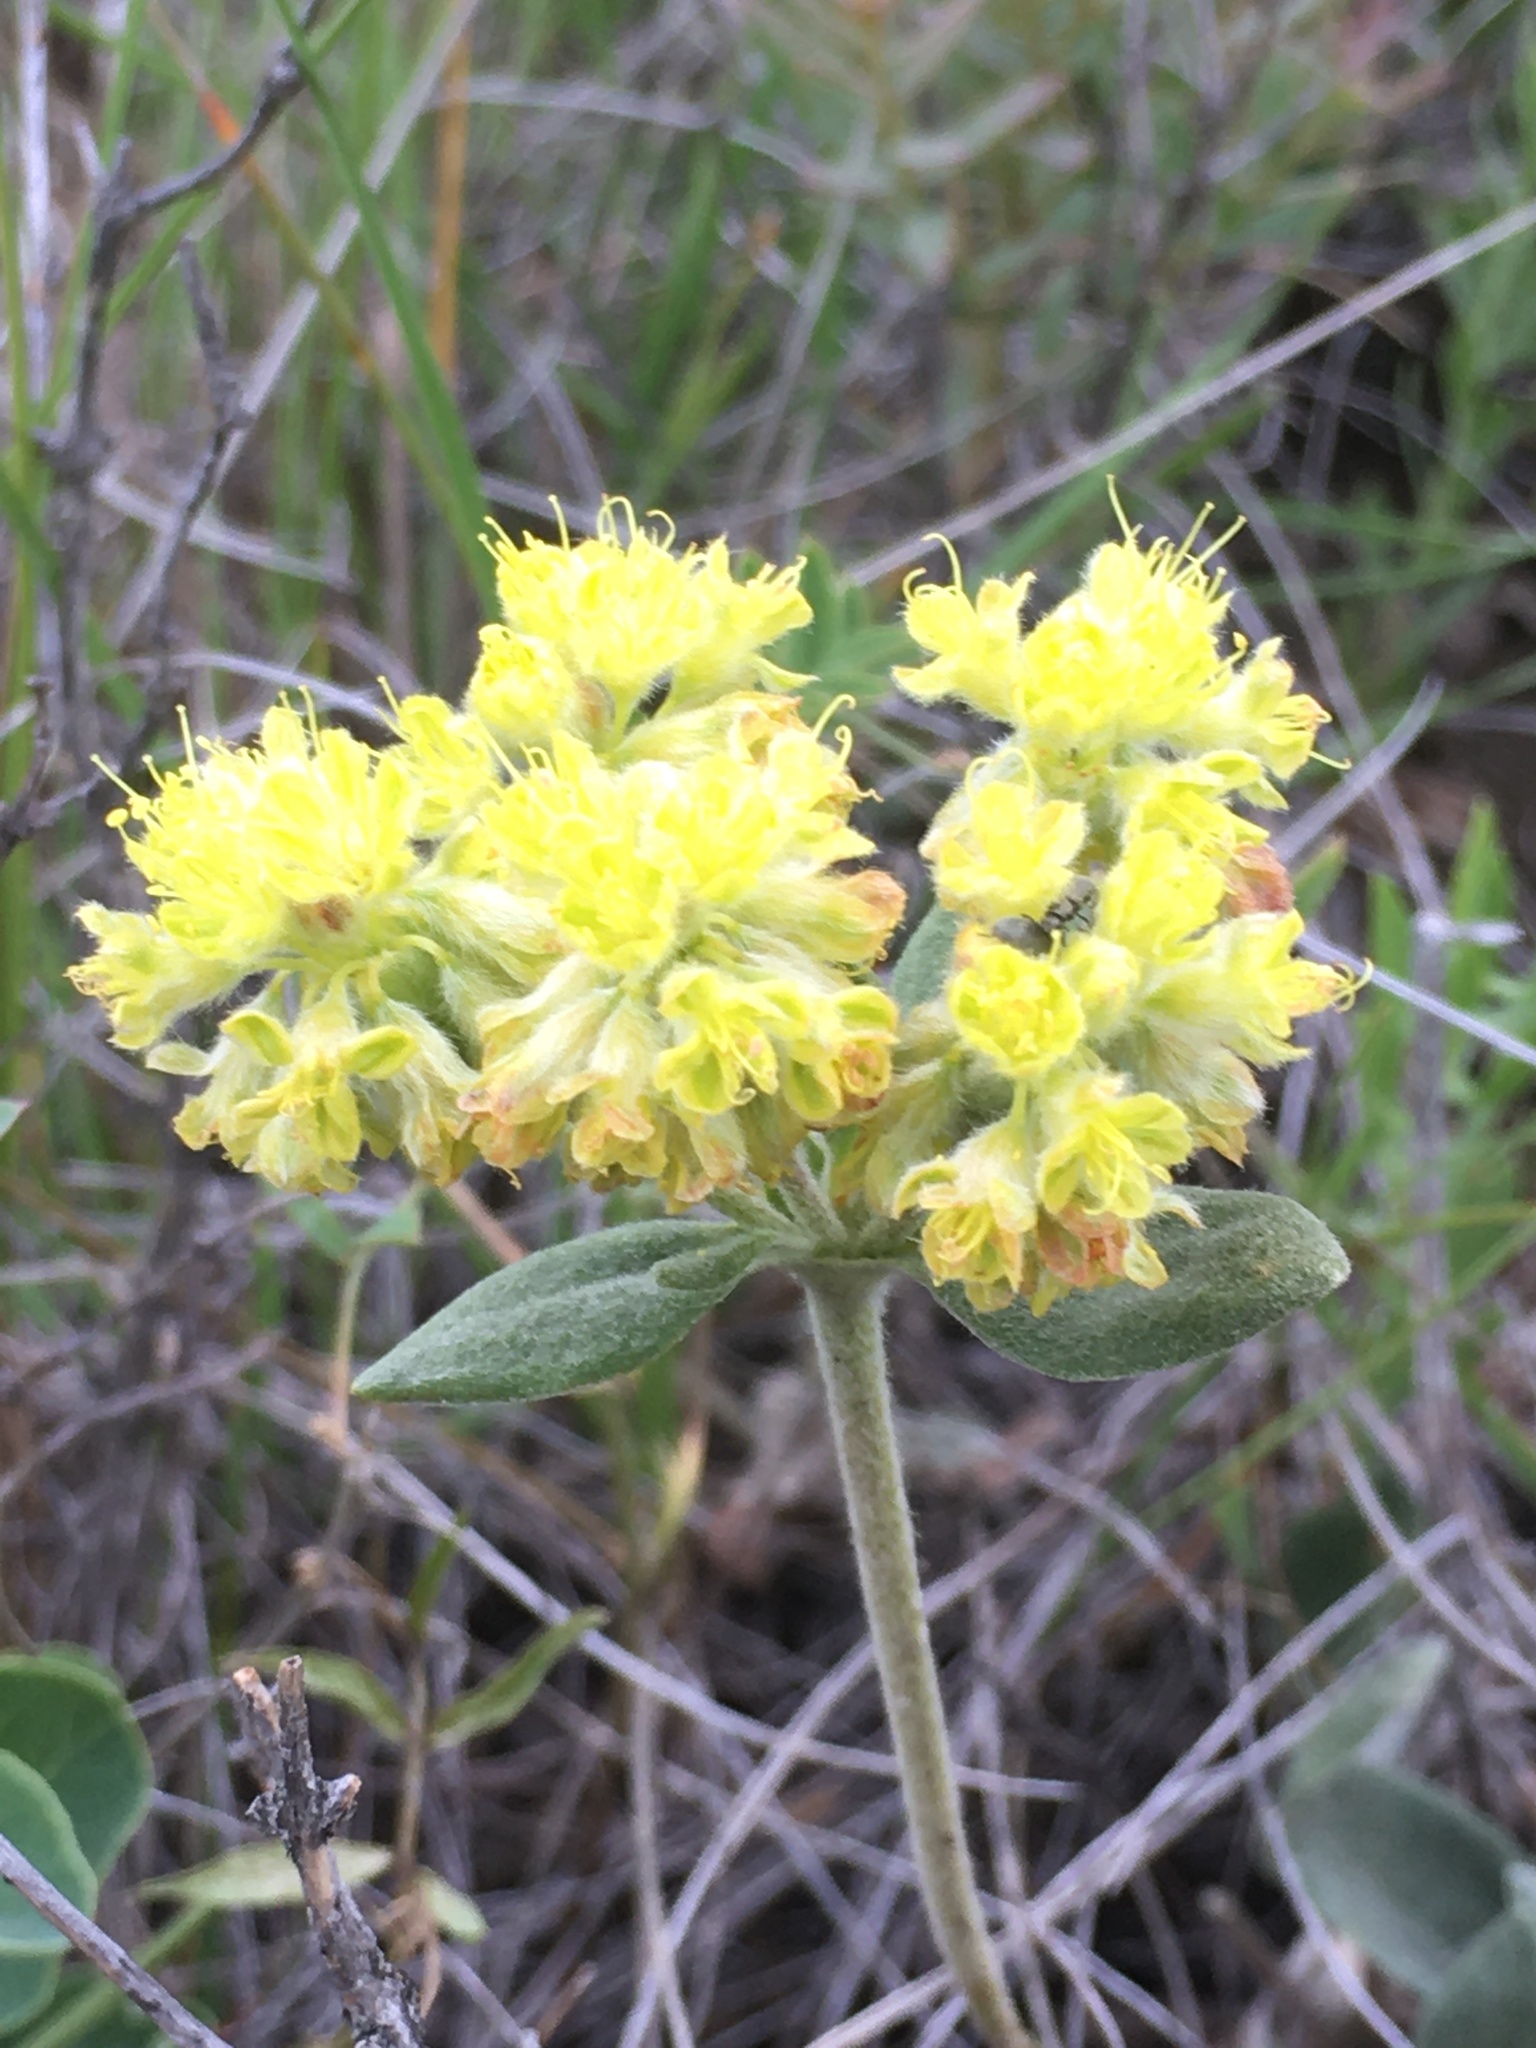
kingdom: Plantae
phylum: Tracheophyta
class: Magnoliopsida
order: Caryophyllales
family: Polygonaceae
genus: Eriogonum
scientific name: Eriogonum flavum
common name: Alpine golden wild buckwheat
